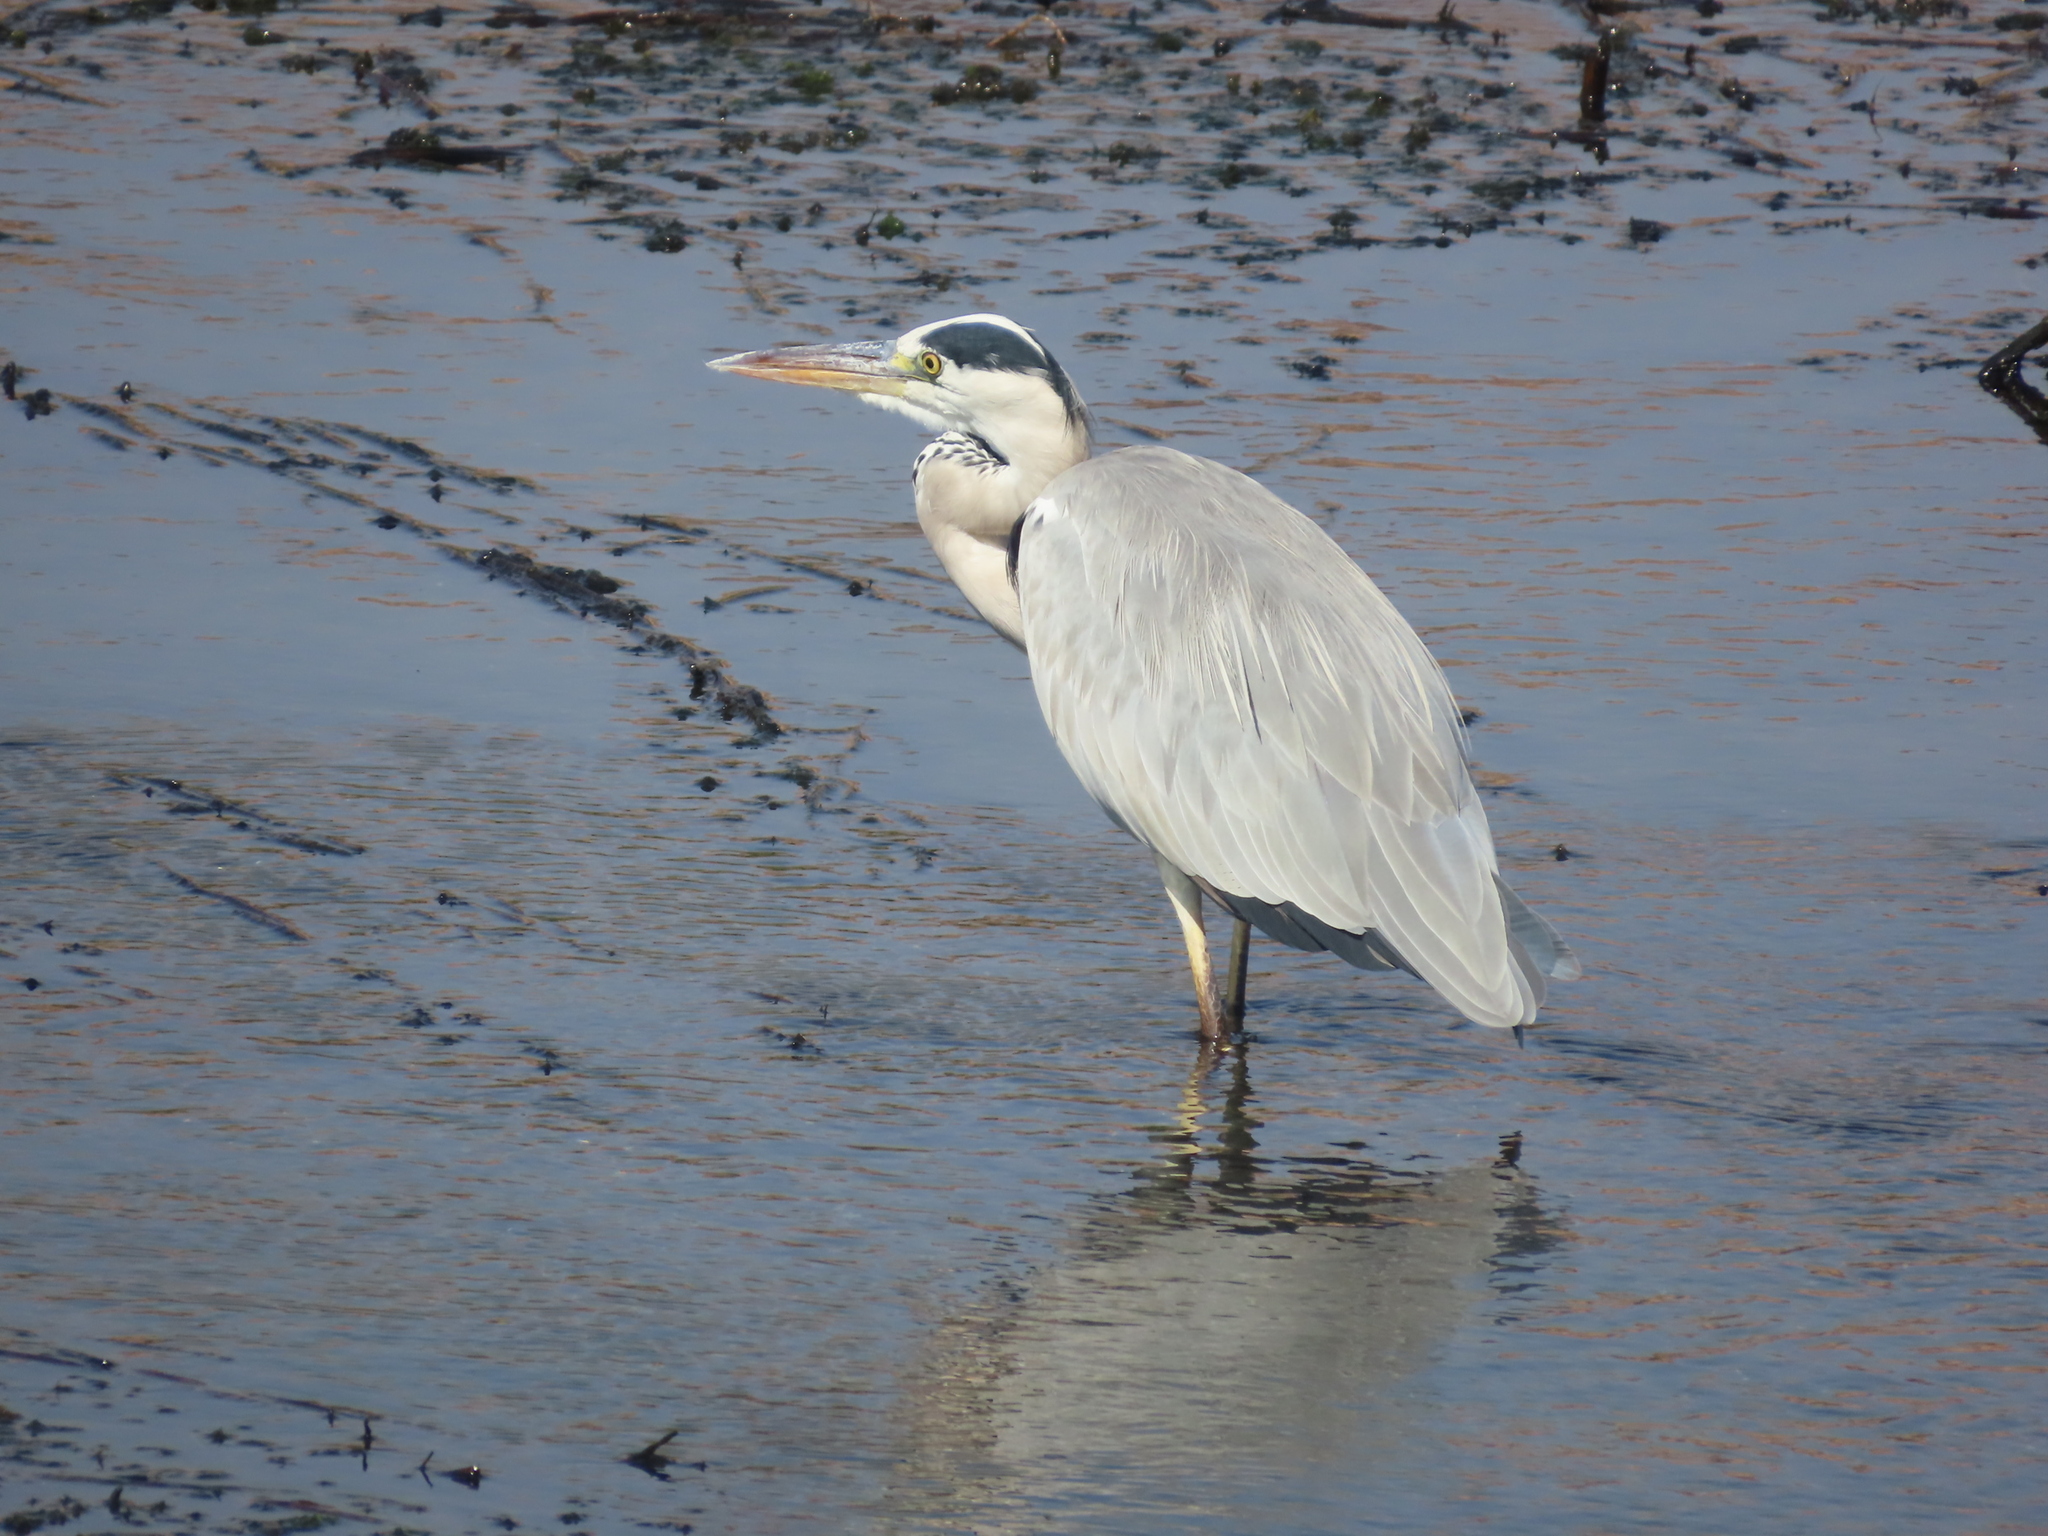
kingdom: Animalia
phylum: Chordata
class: Aves
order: Pelecaniformes
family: Ardeidae
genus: Ardea
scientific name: Ardea cinerea
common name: Grey heron
